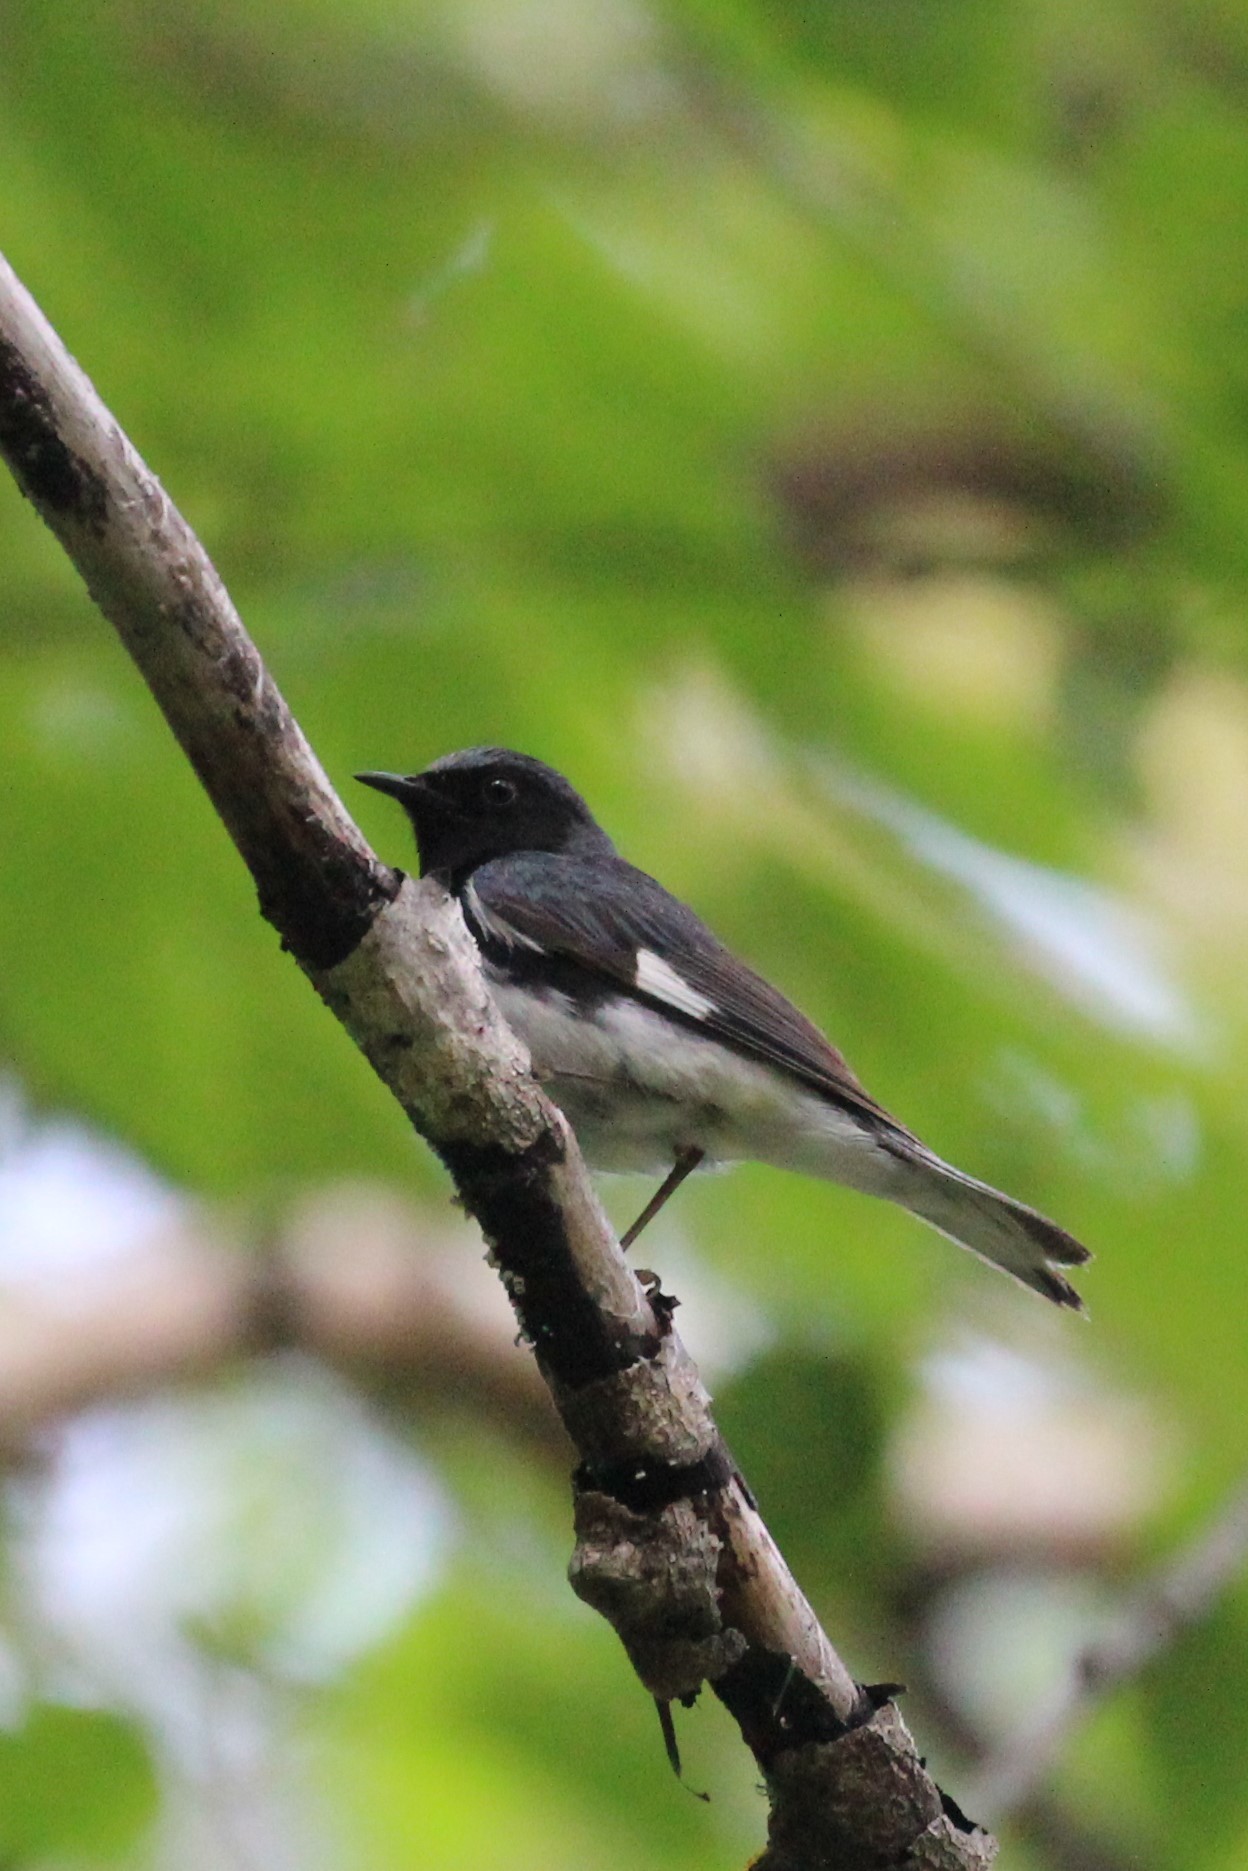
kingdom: Animalia
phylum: Chordata
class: Aves
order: Passeriformes
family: Parulidae
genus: Setophaga
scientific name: Setophaga caerulescens
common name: Black-throated blue warbler
